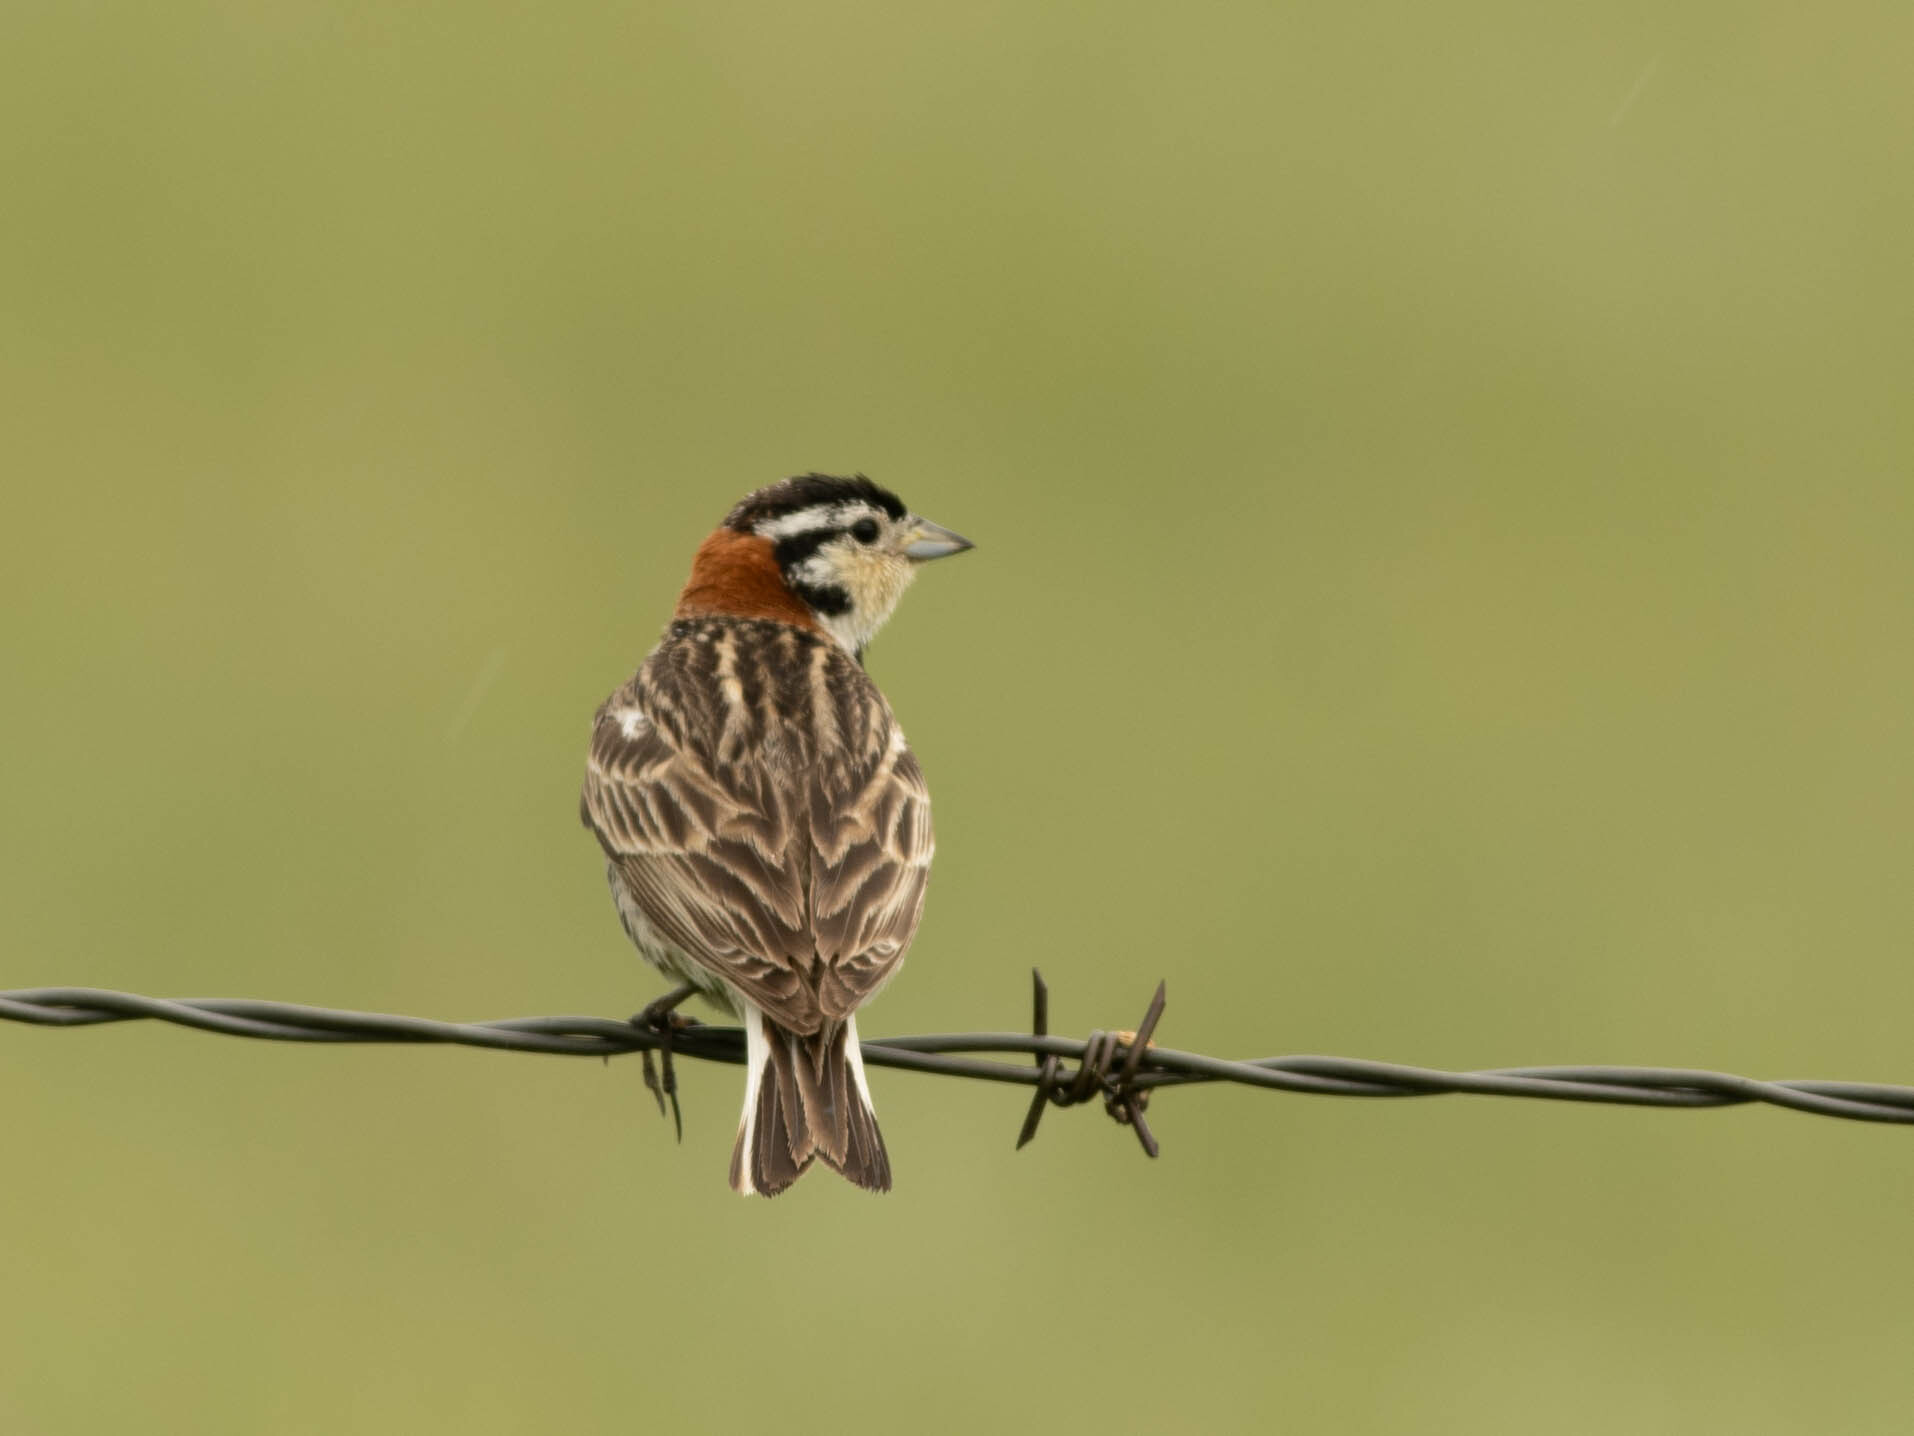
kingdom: Animalia
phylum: Chordata
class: Aves
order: Passeriformes
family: Calcariidae
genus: Calcarius
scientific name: Calcarius ornatus
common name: Chestnut-collared longspur
